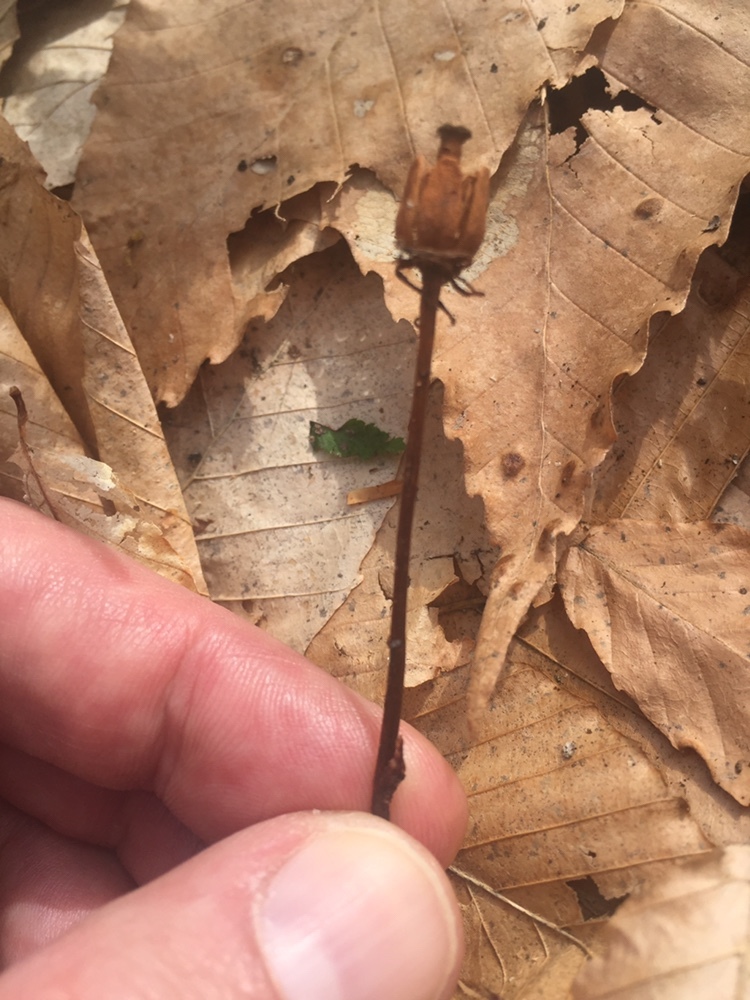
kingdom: Plantae
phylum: Tracheophyta
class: Magnoliopsida
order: Ericales
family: Ericaceae
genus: Monotropa
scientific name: Monotropa uniflora
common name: Convulsion root
